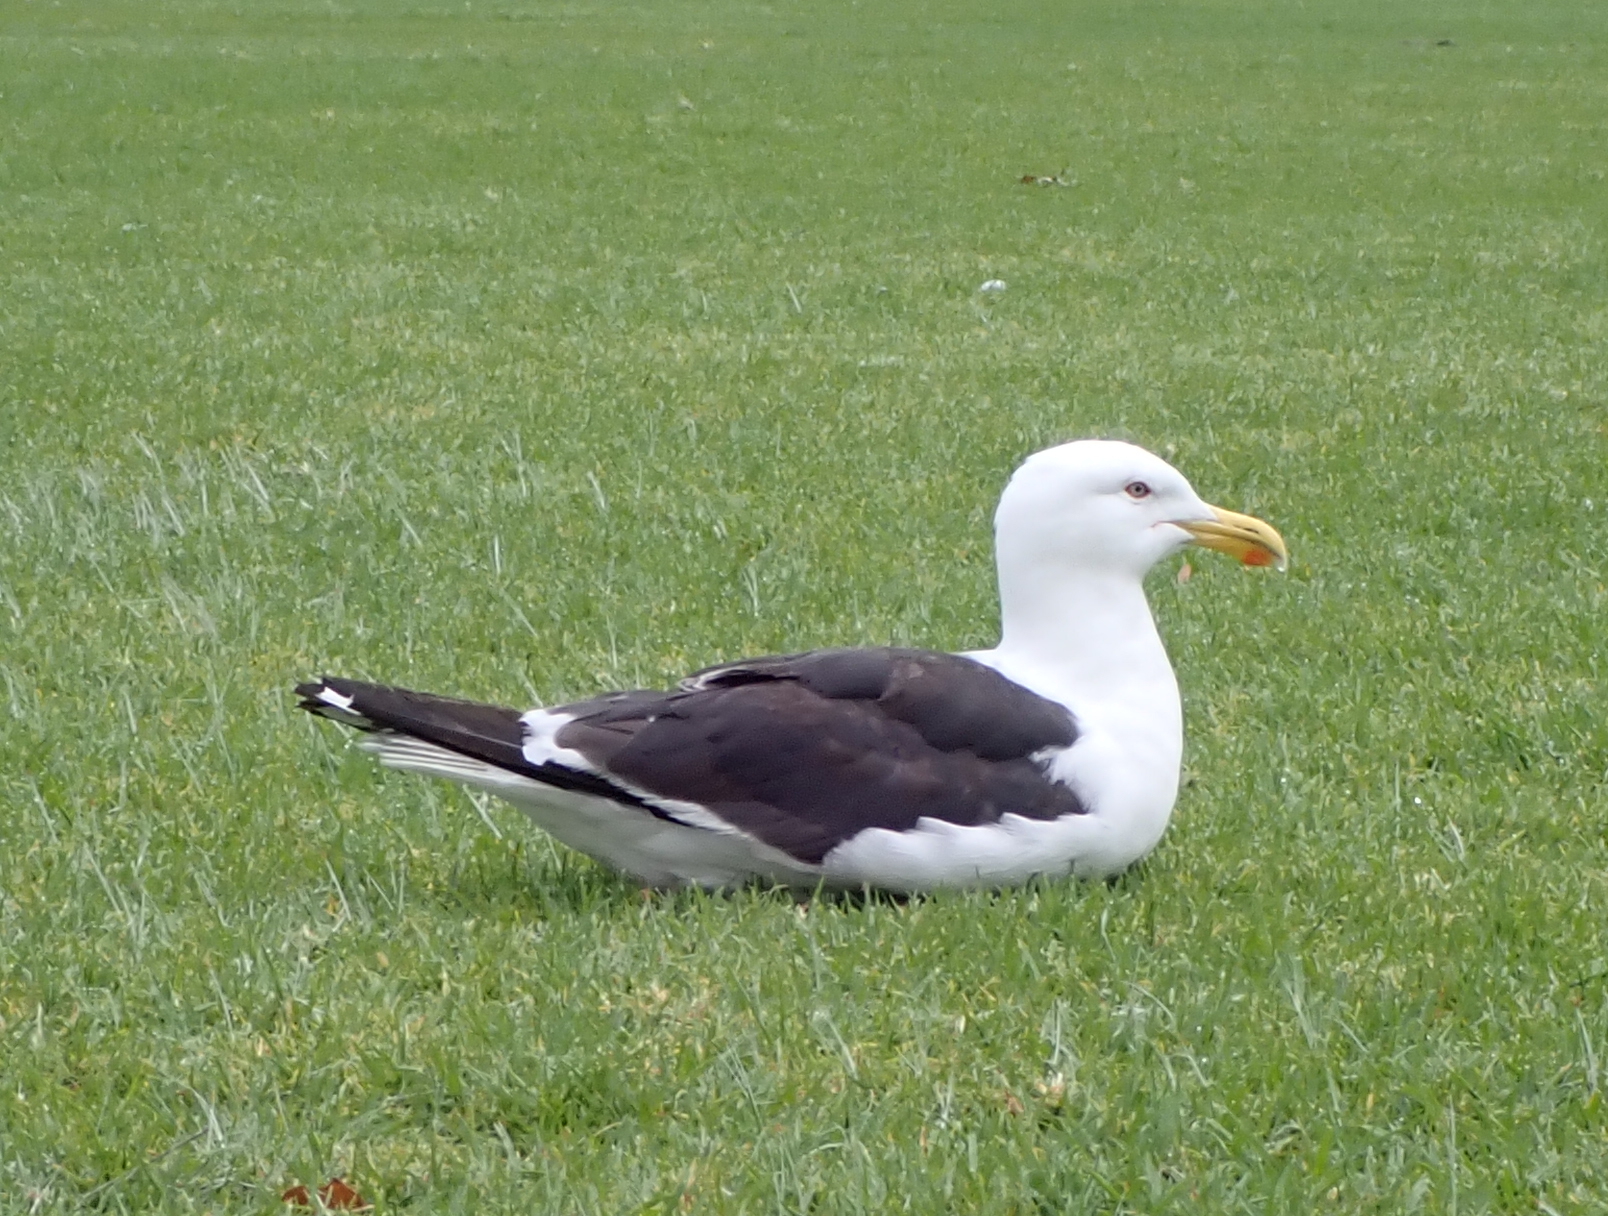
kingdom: Animalia
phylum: Chordata
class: Aves
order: Charadriiformes
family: Laridae
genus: Larus
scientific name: Larus dominicanus
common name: Kelp gull
